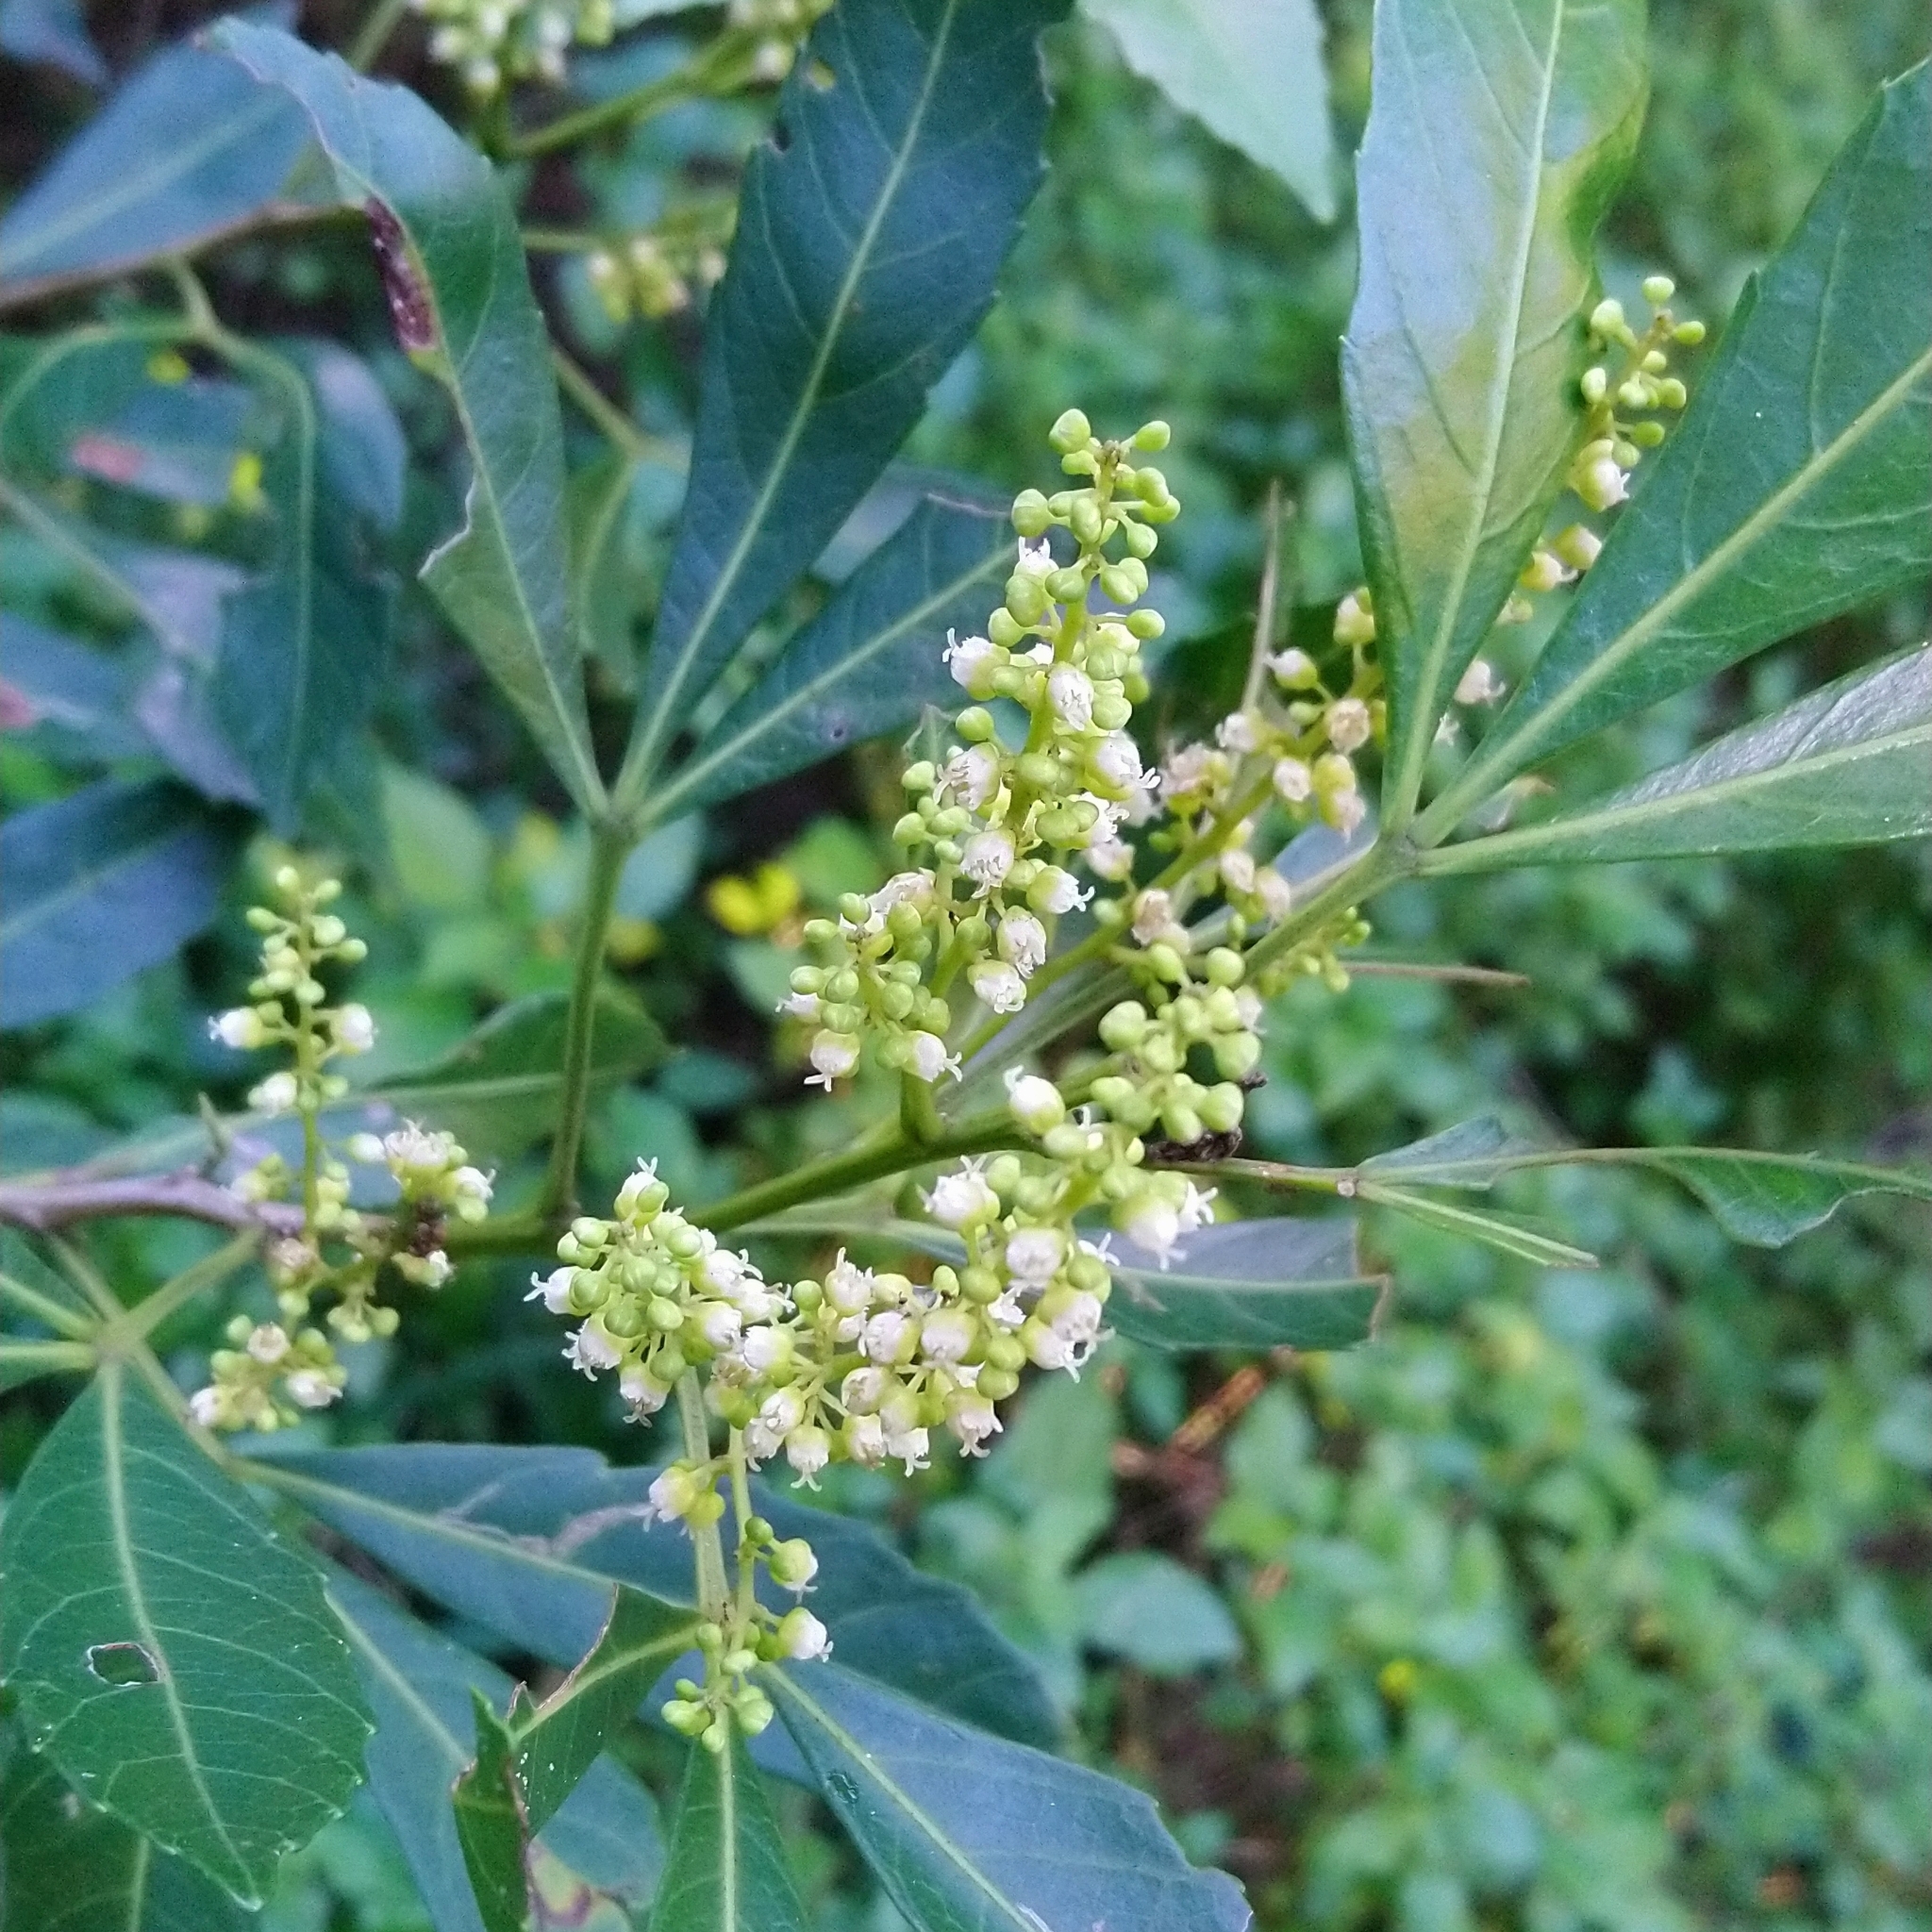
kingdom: Plantae
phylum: Tracheophyta
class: Magnoliopsida
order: Sapindales
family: Sapindaceae
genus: Allophylus
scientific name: Allophylus natalensis
